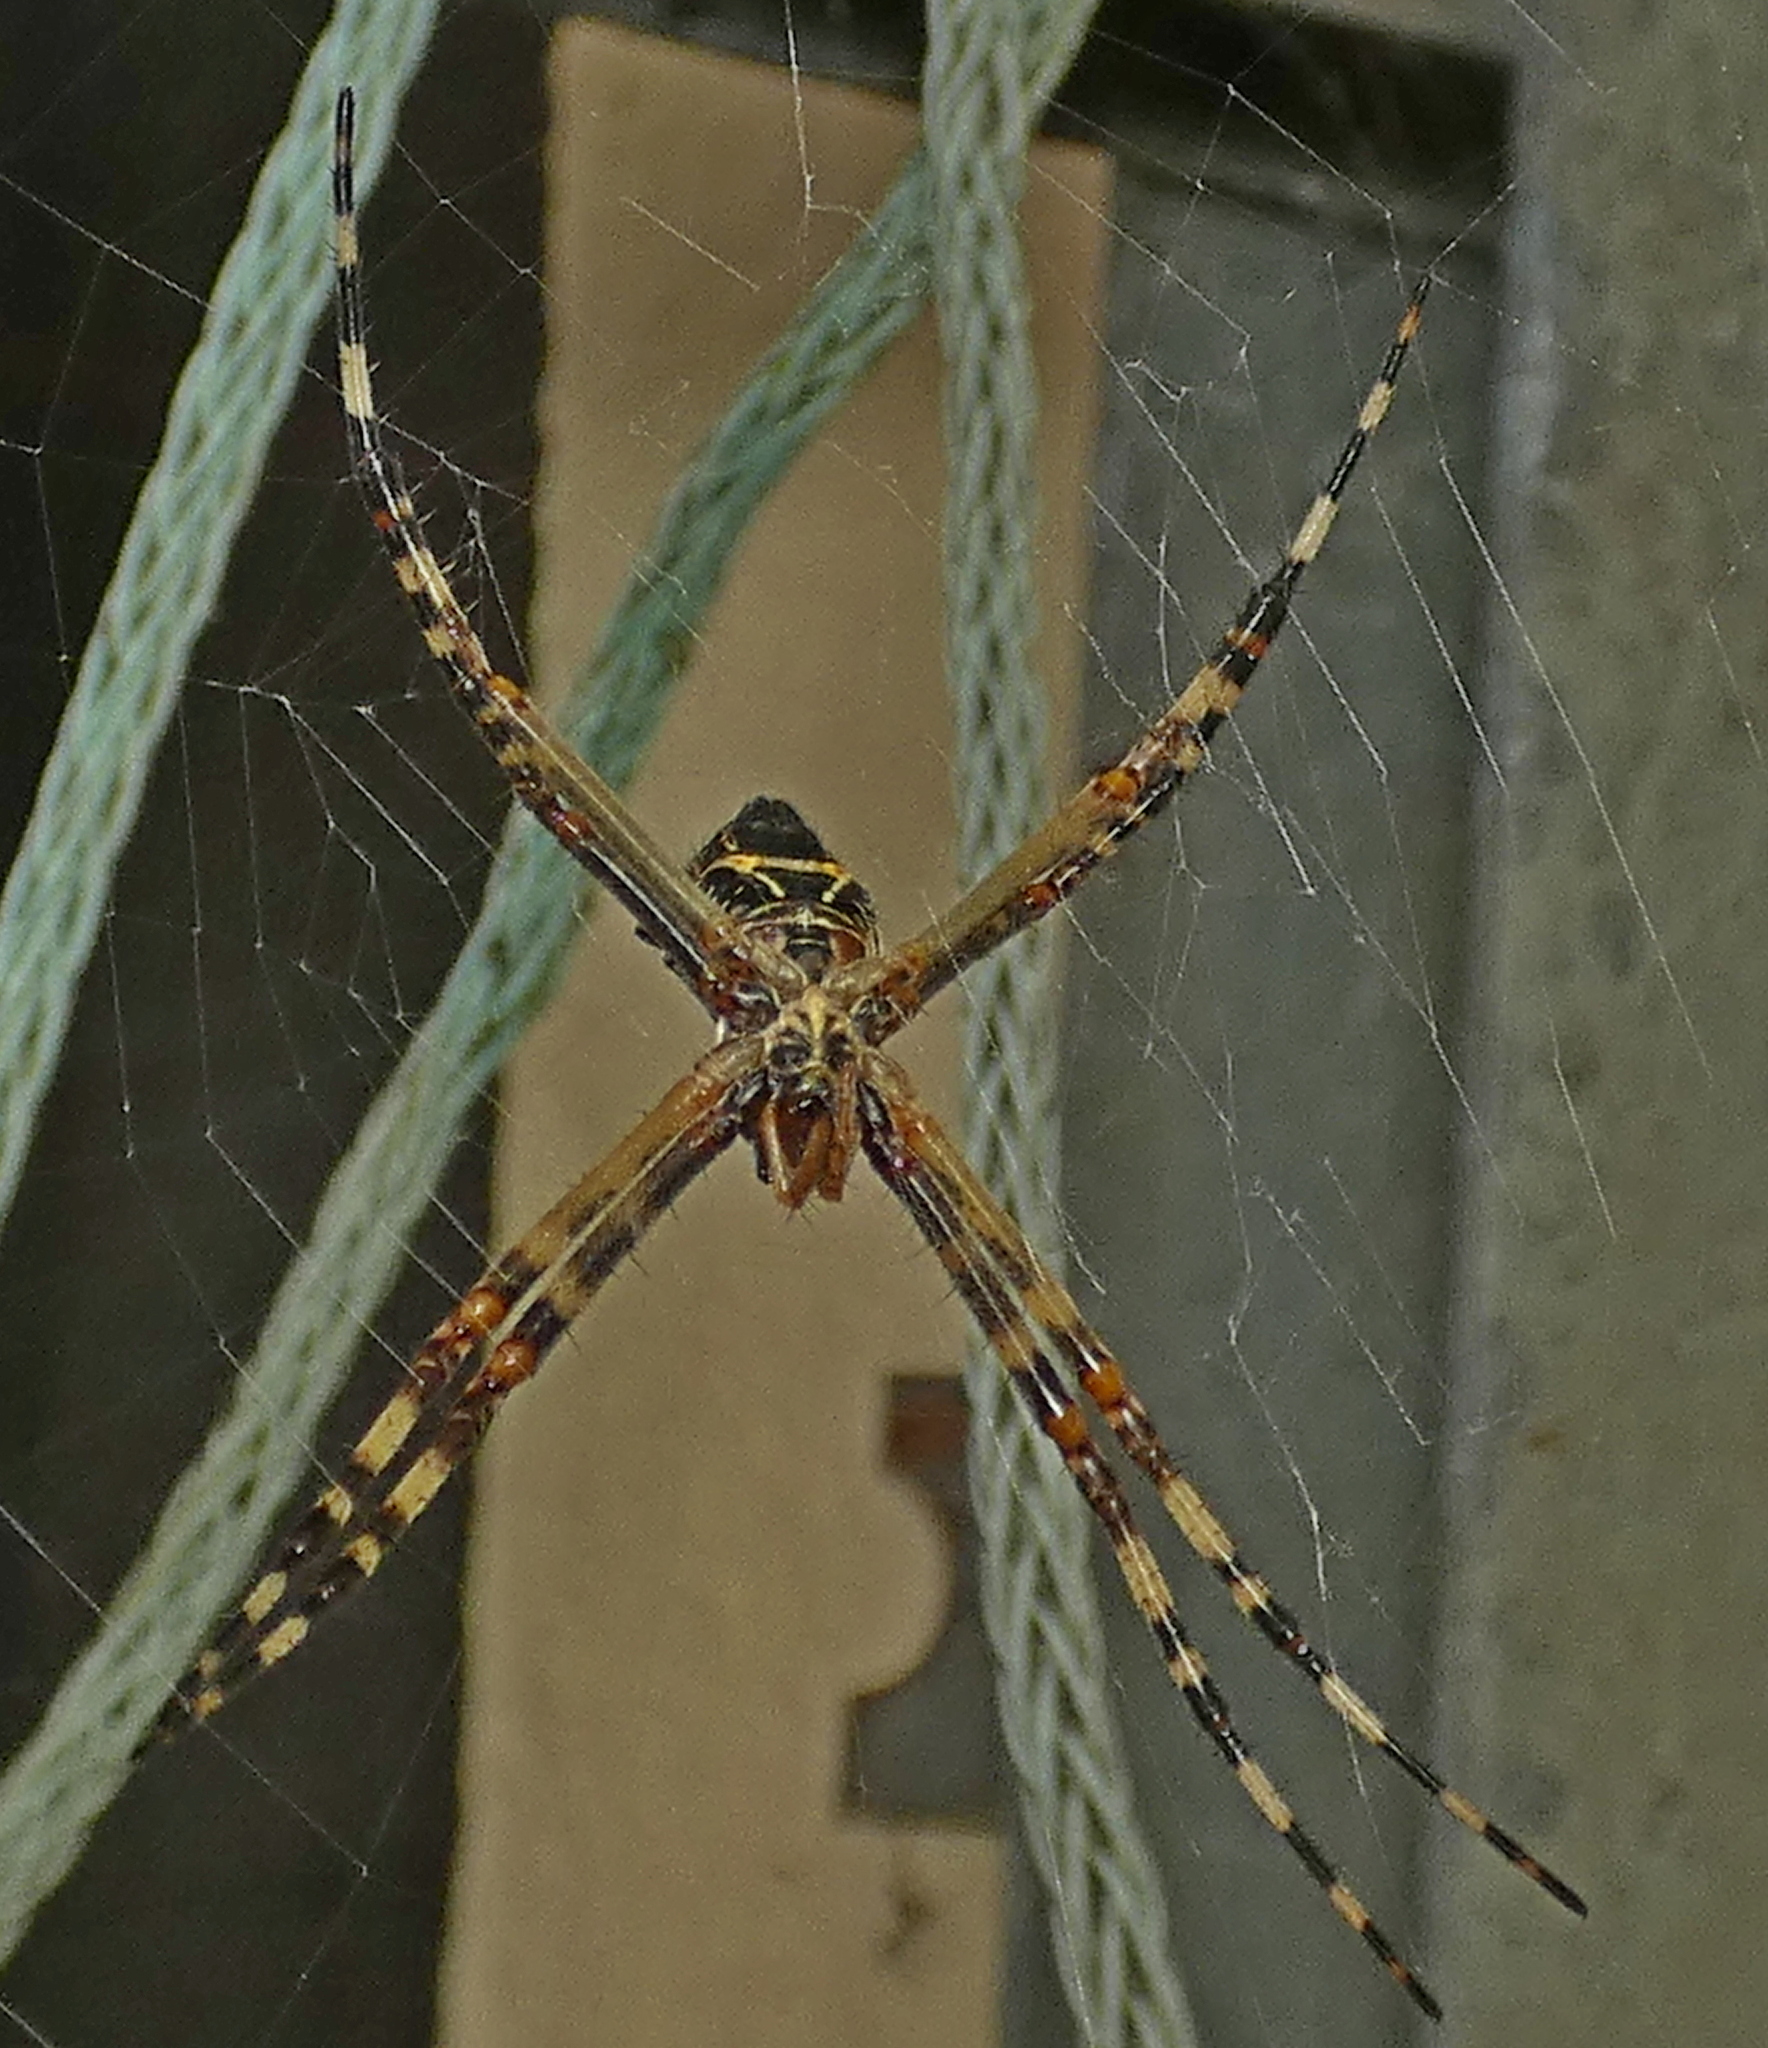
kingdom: Animalia
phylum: Arthropoda
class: Arachnida
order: Araneae
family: Araneidae
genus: Argiope
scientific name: Argiope argentata
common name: Orb weavers
